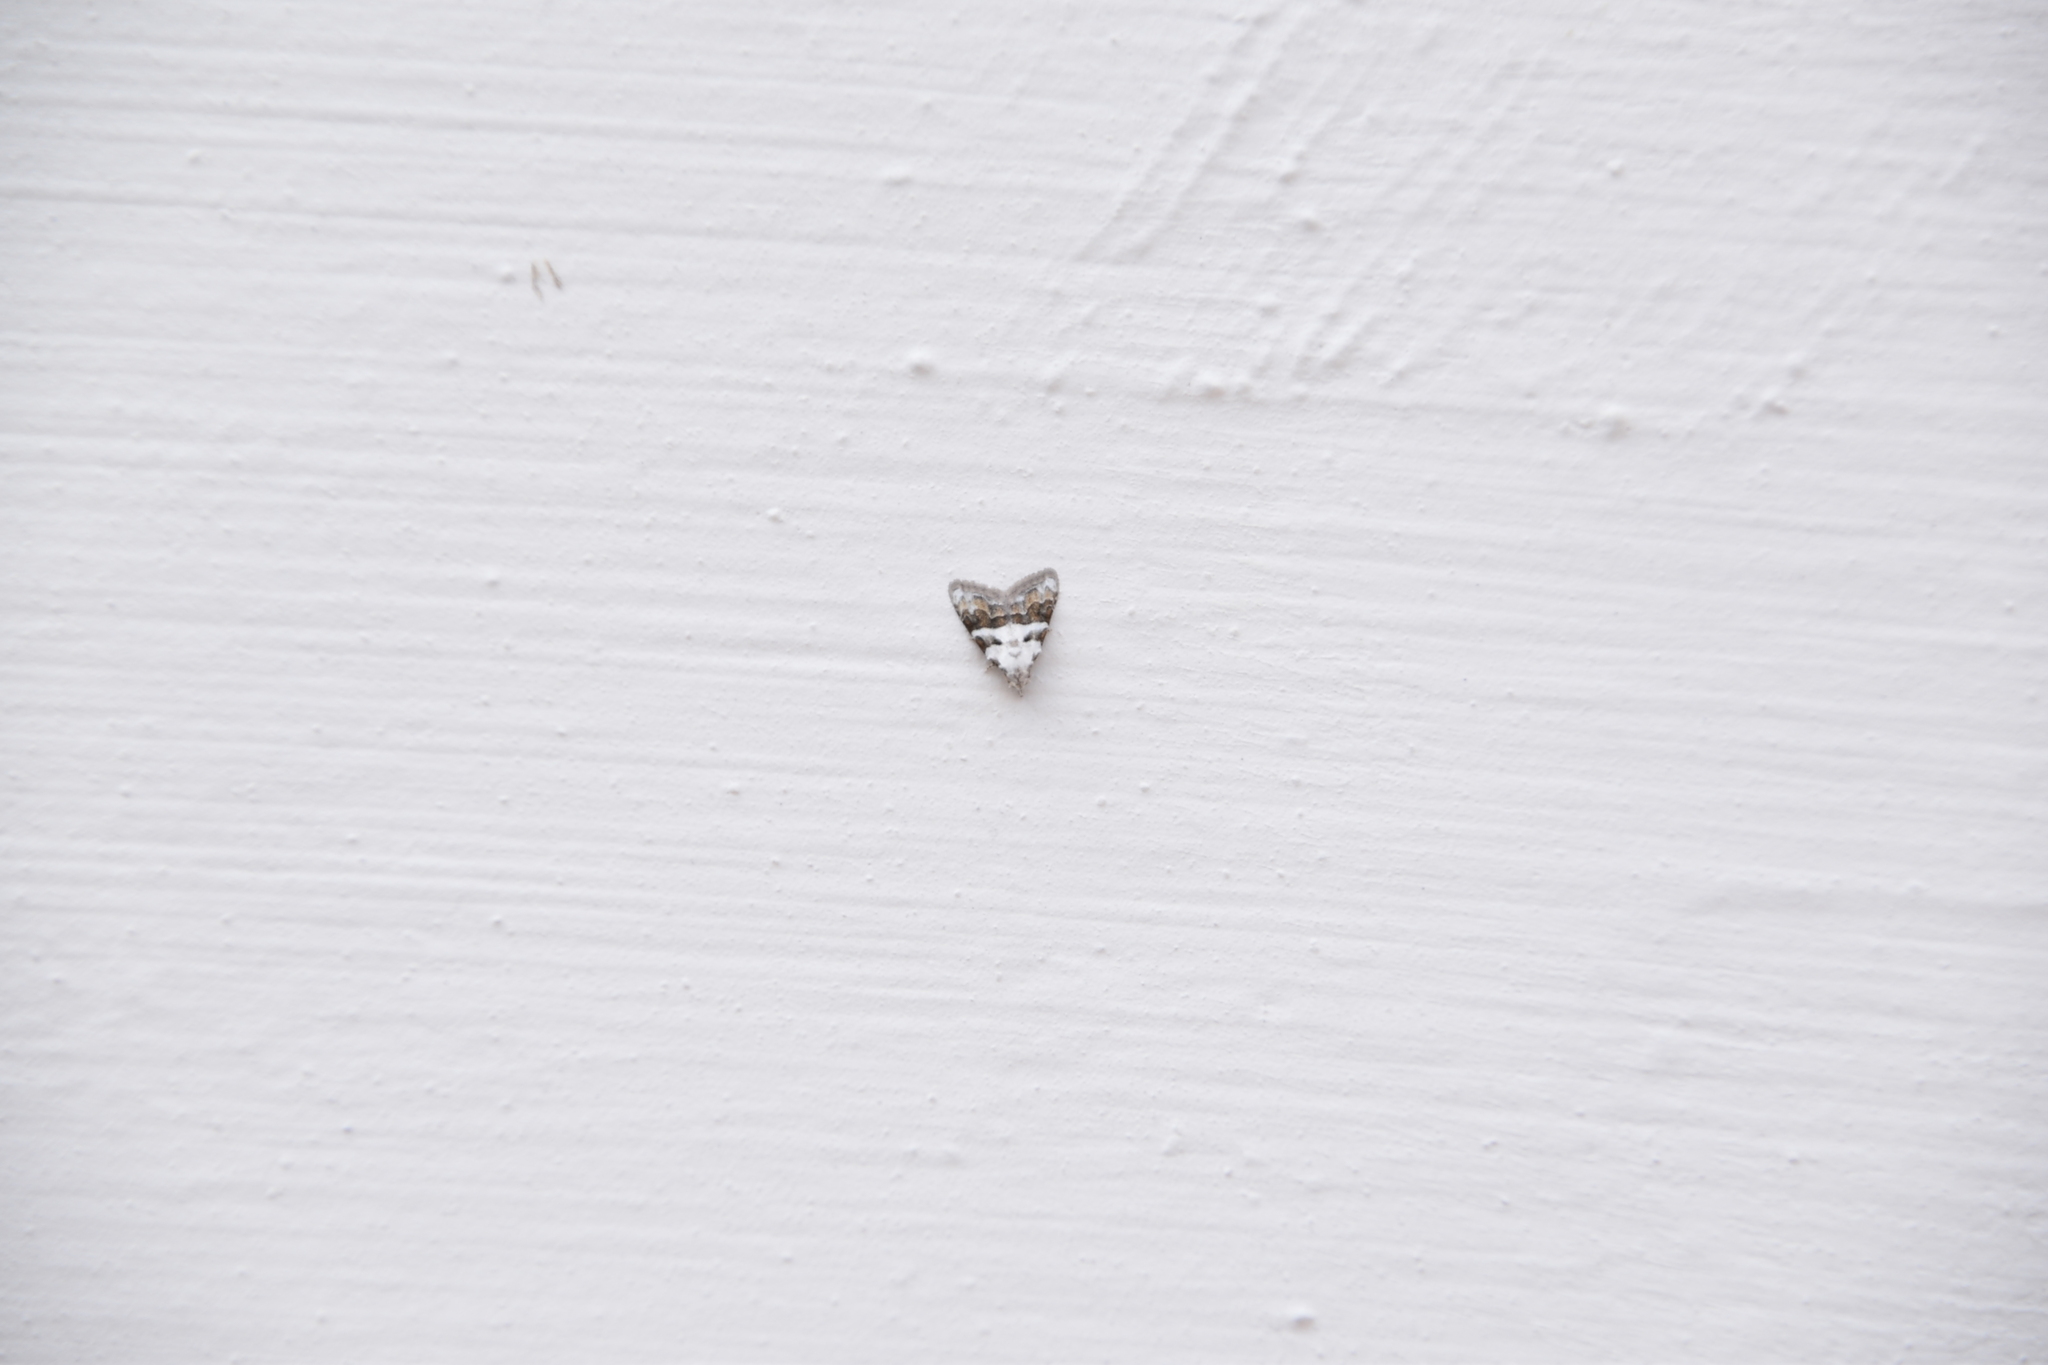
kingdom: Animalia
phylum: Arthropoda
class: Insecta
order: Lepidoptera
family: Nolidae
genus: Nola
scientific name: Nola lucidalis
